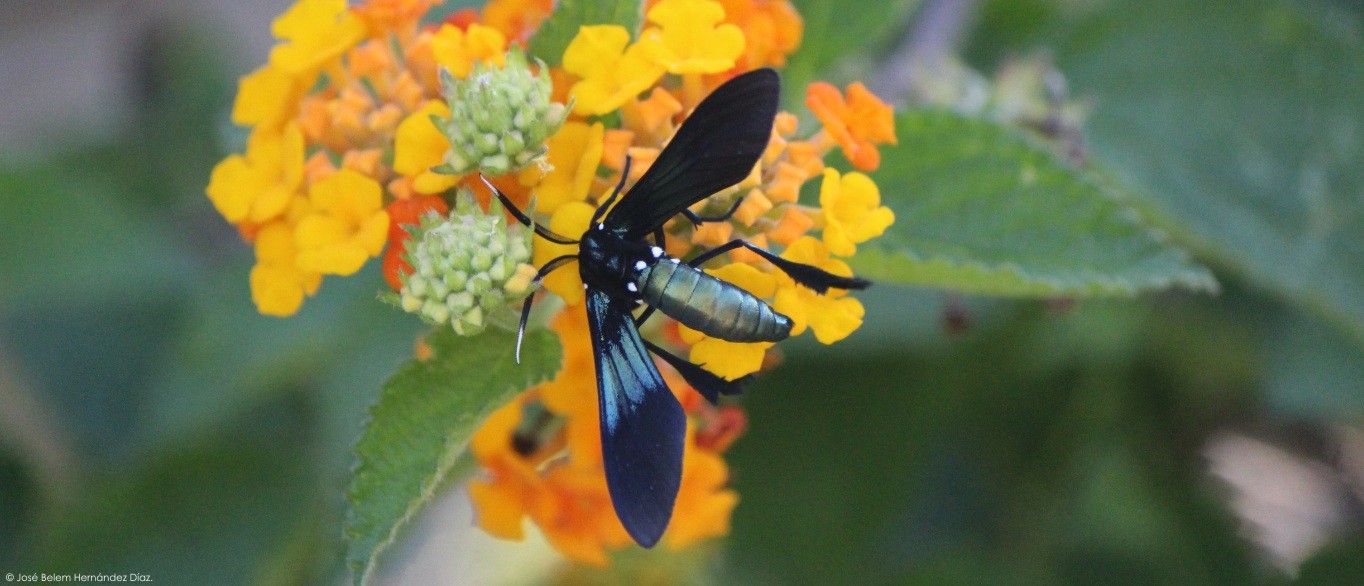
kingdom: Animalia
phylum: Arthropoda
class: Insecta
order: Lepidoptera
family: Erebidae
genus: Macrocneme
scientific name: Macrocneme chrysitis
